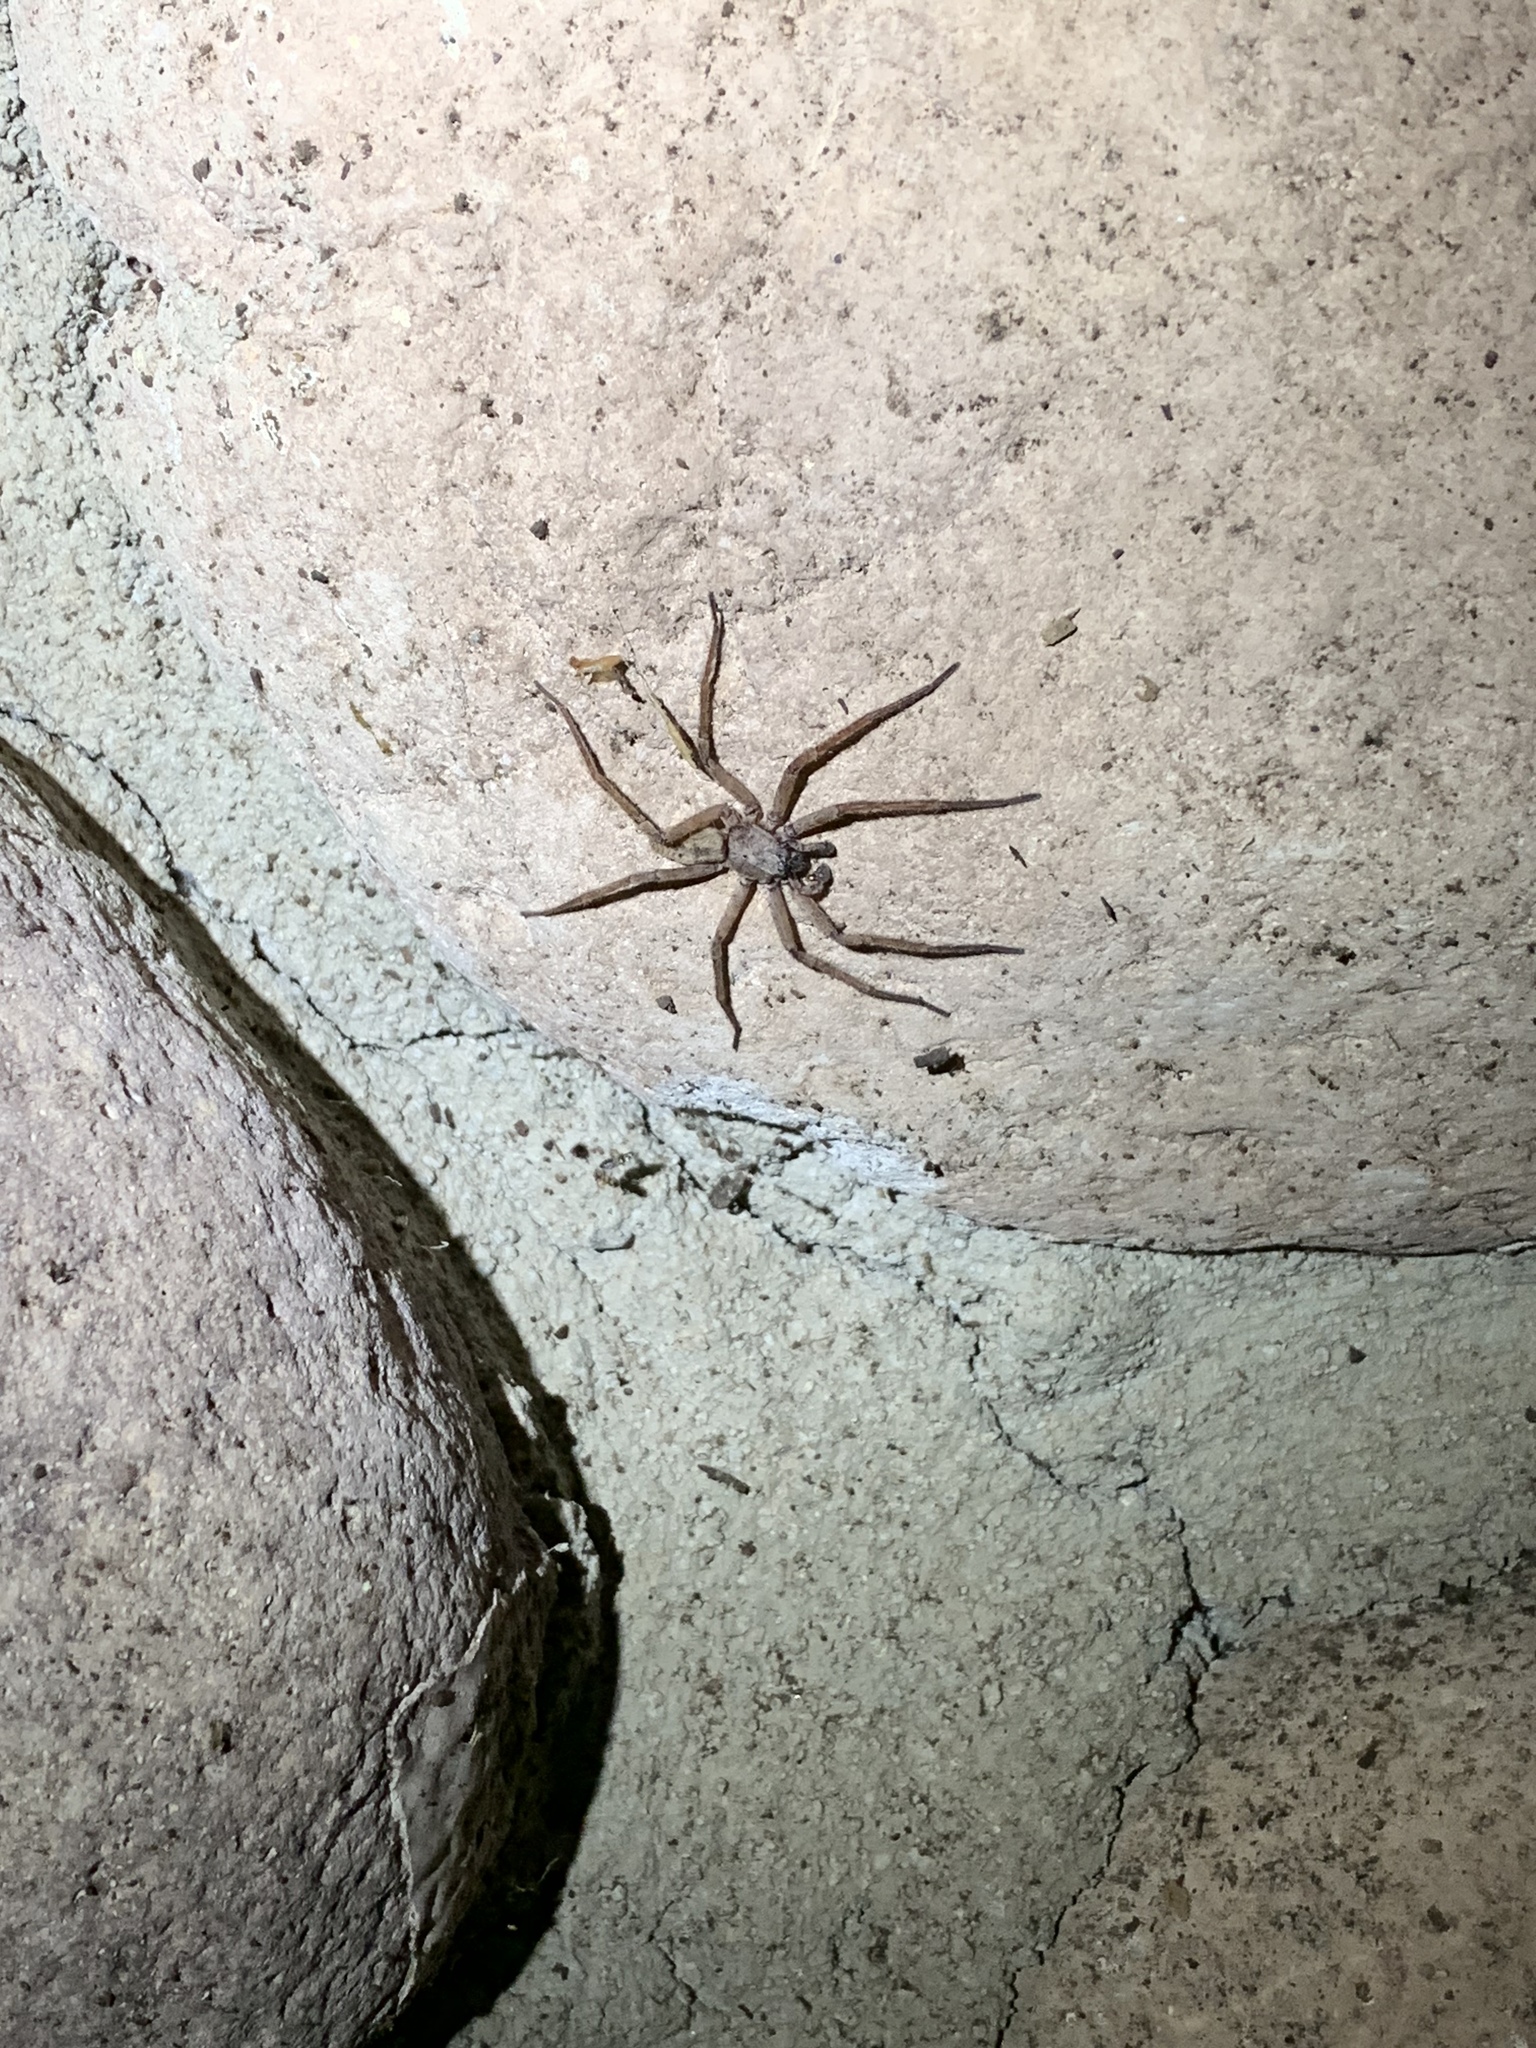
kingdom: Animalia
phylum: Arthropoda
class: Arachnida
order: Araneae
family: Zoropsidae
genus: Lauricius
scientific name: Lauricius hooki
